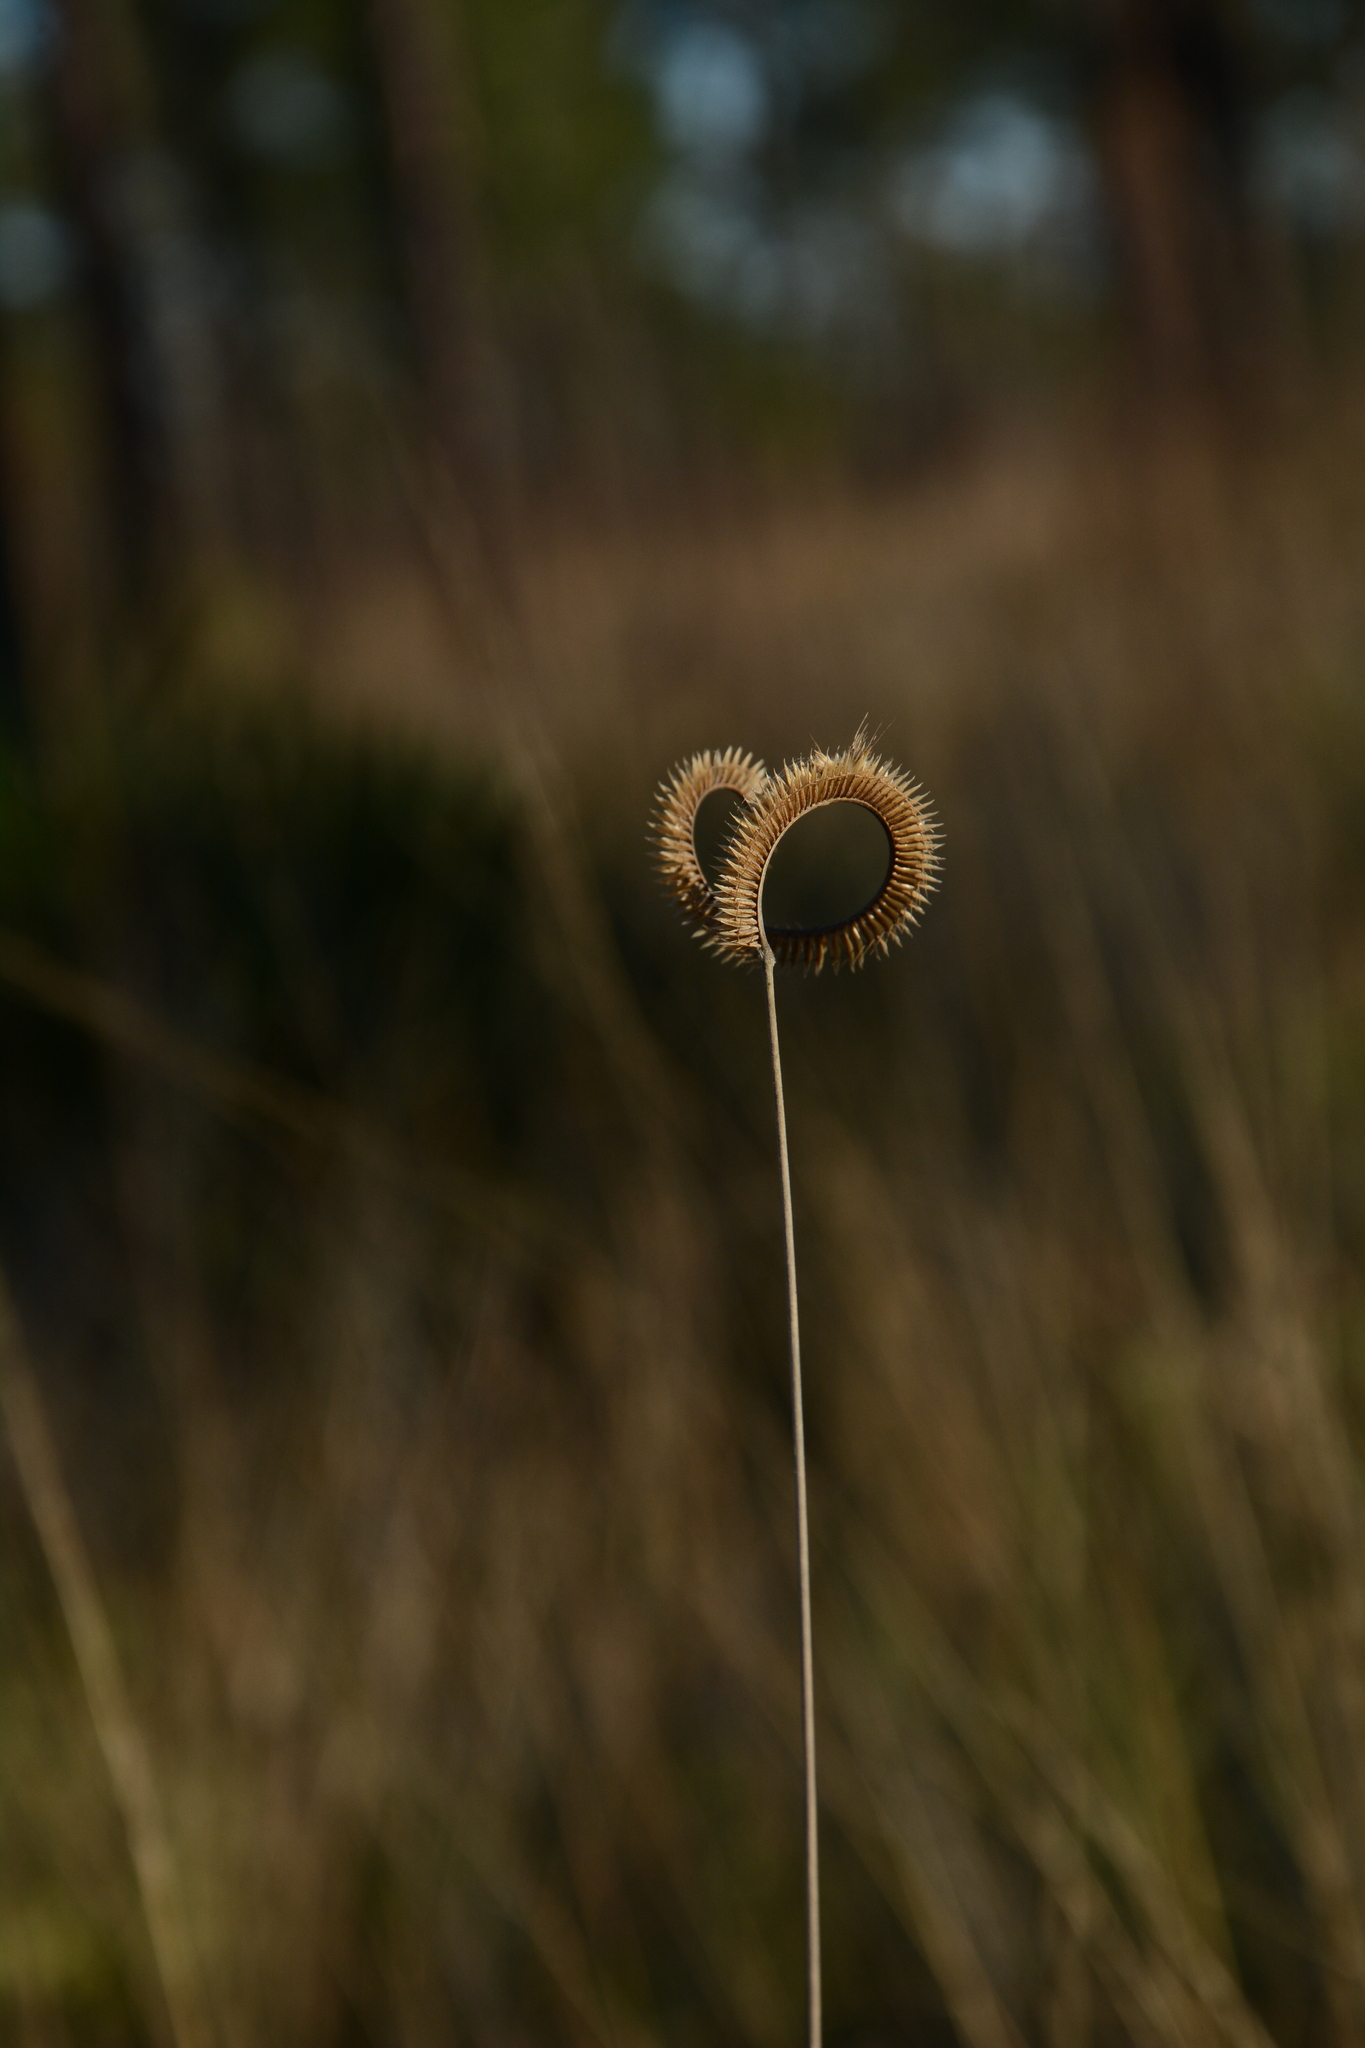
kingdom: Plantae
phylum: Tracheophyta
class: Liliopsida
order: Poales
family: Poaceae
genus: Ctenium
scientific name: Ctenium aromaticum
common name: Toothache grass
